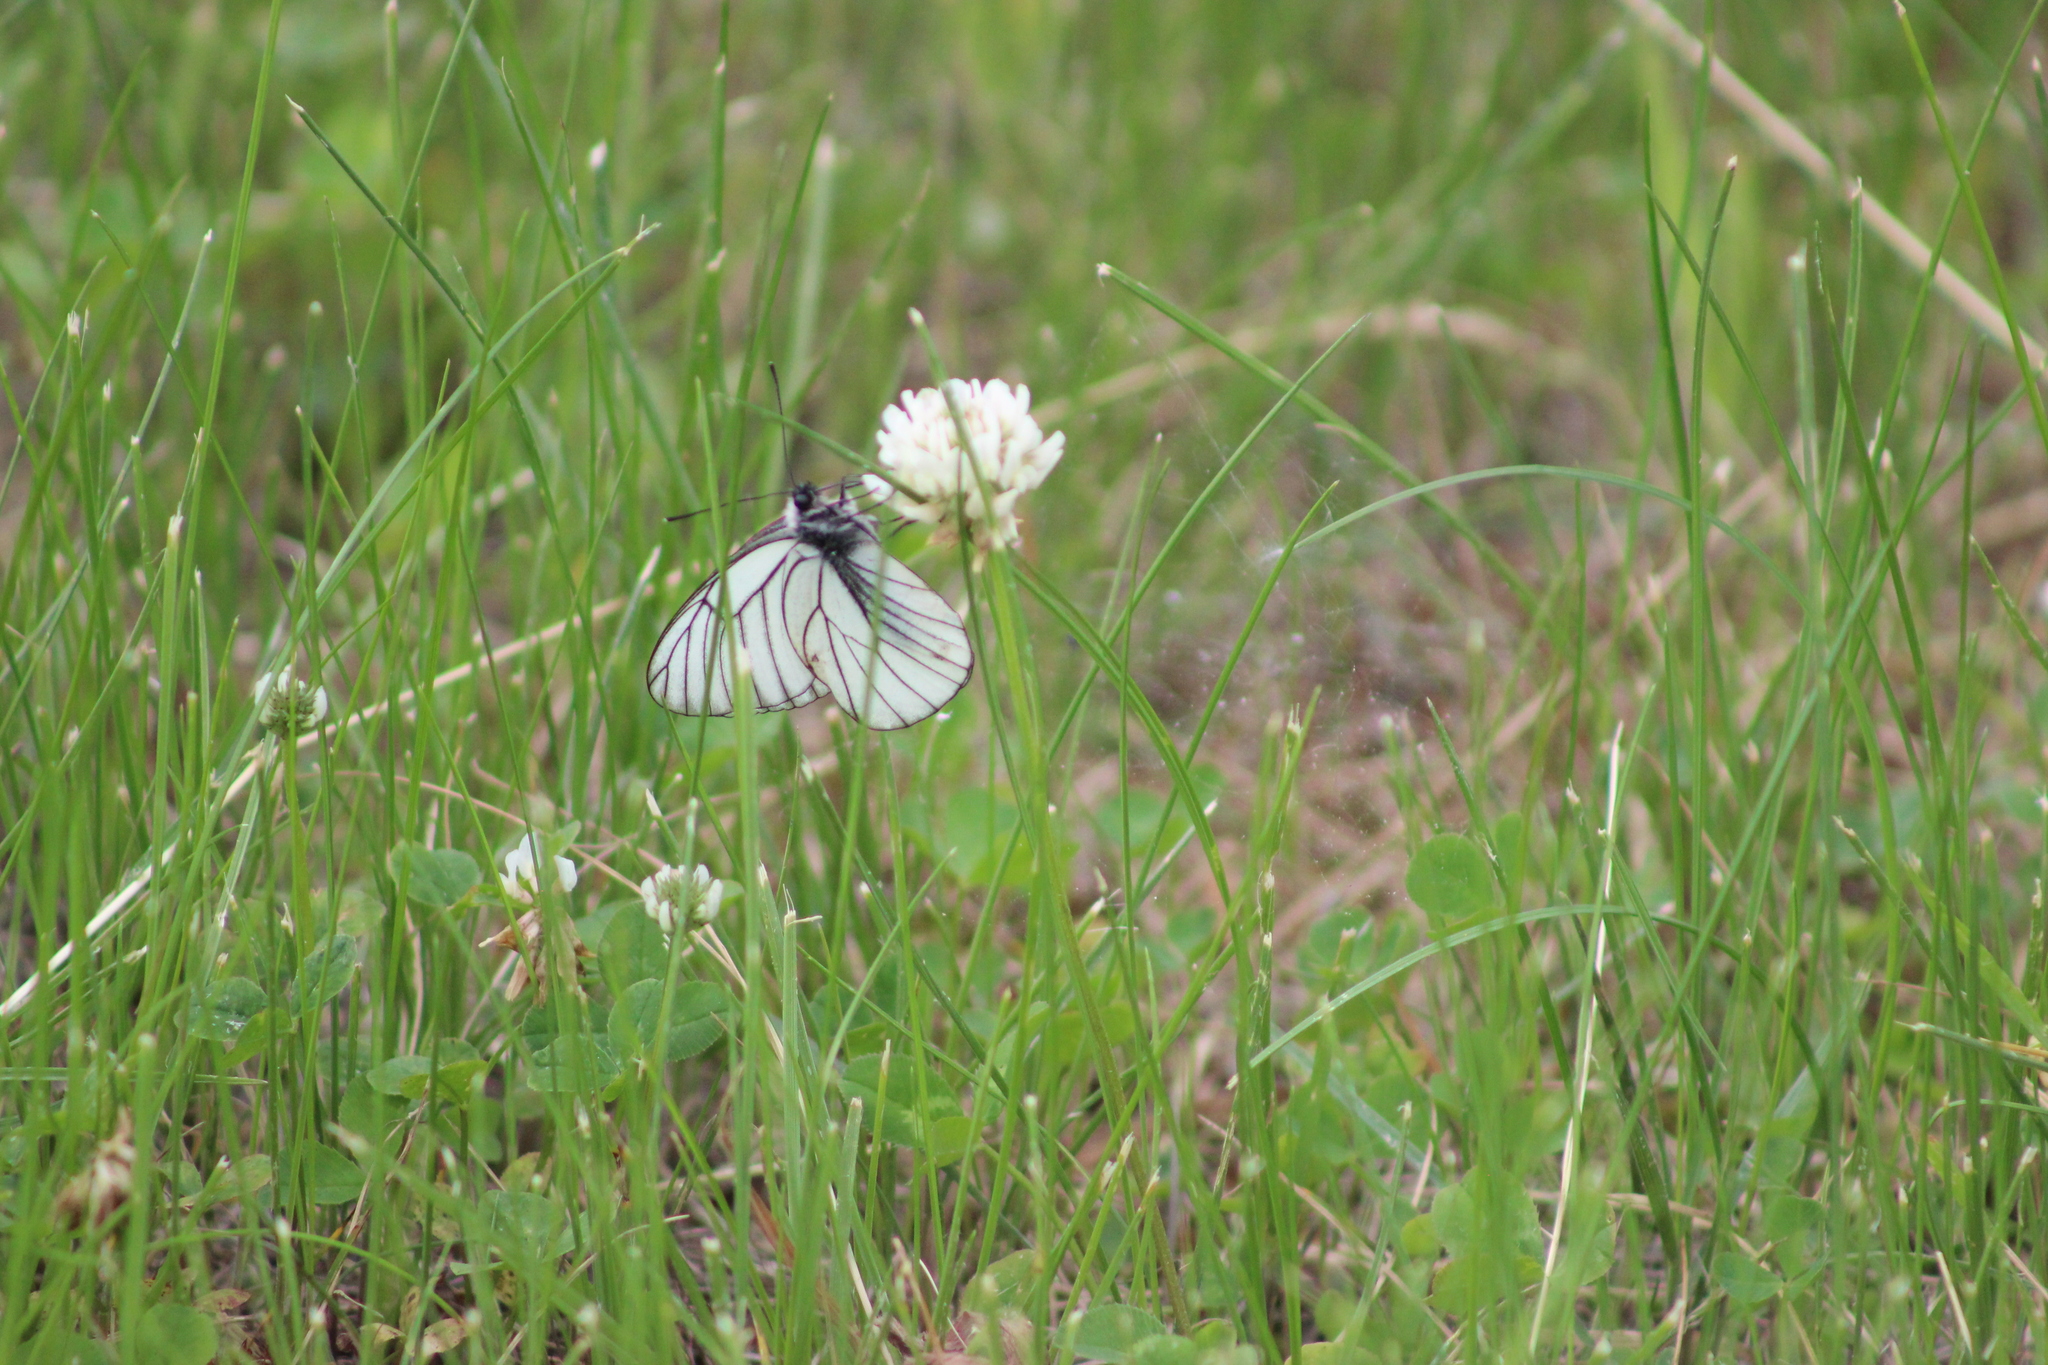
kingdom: Animalia
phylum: Arthropoda
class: Insecta
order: Lepidoptera
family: Pieridae
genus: Aporia
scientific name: Aporia crataegi
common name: Black-veined white
